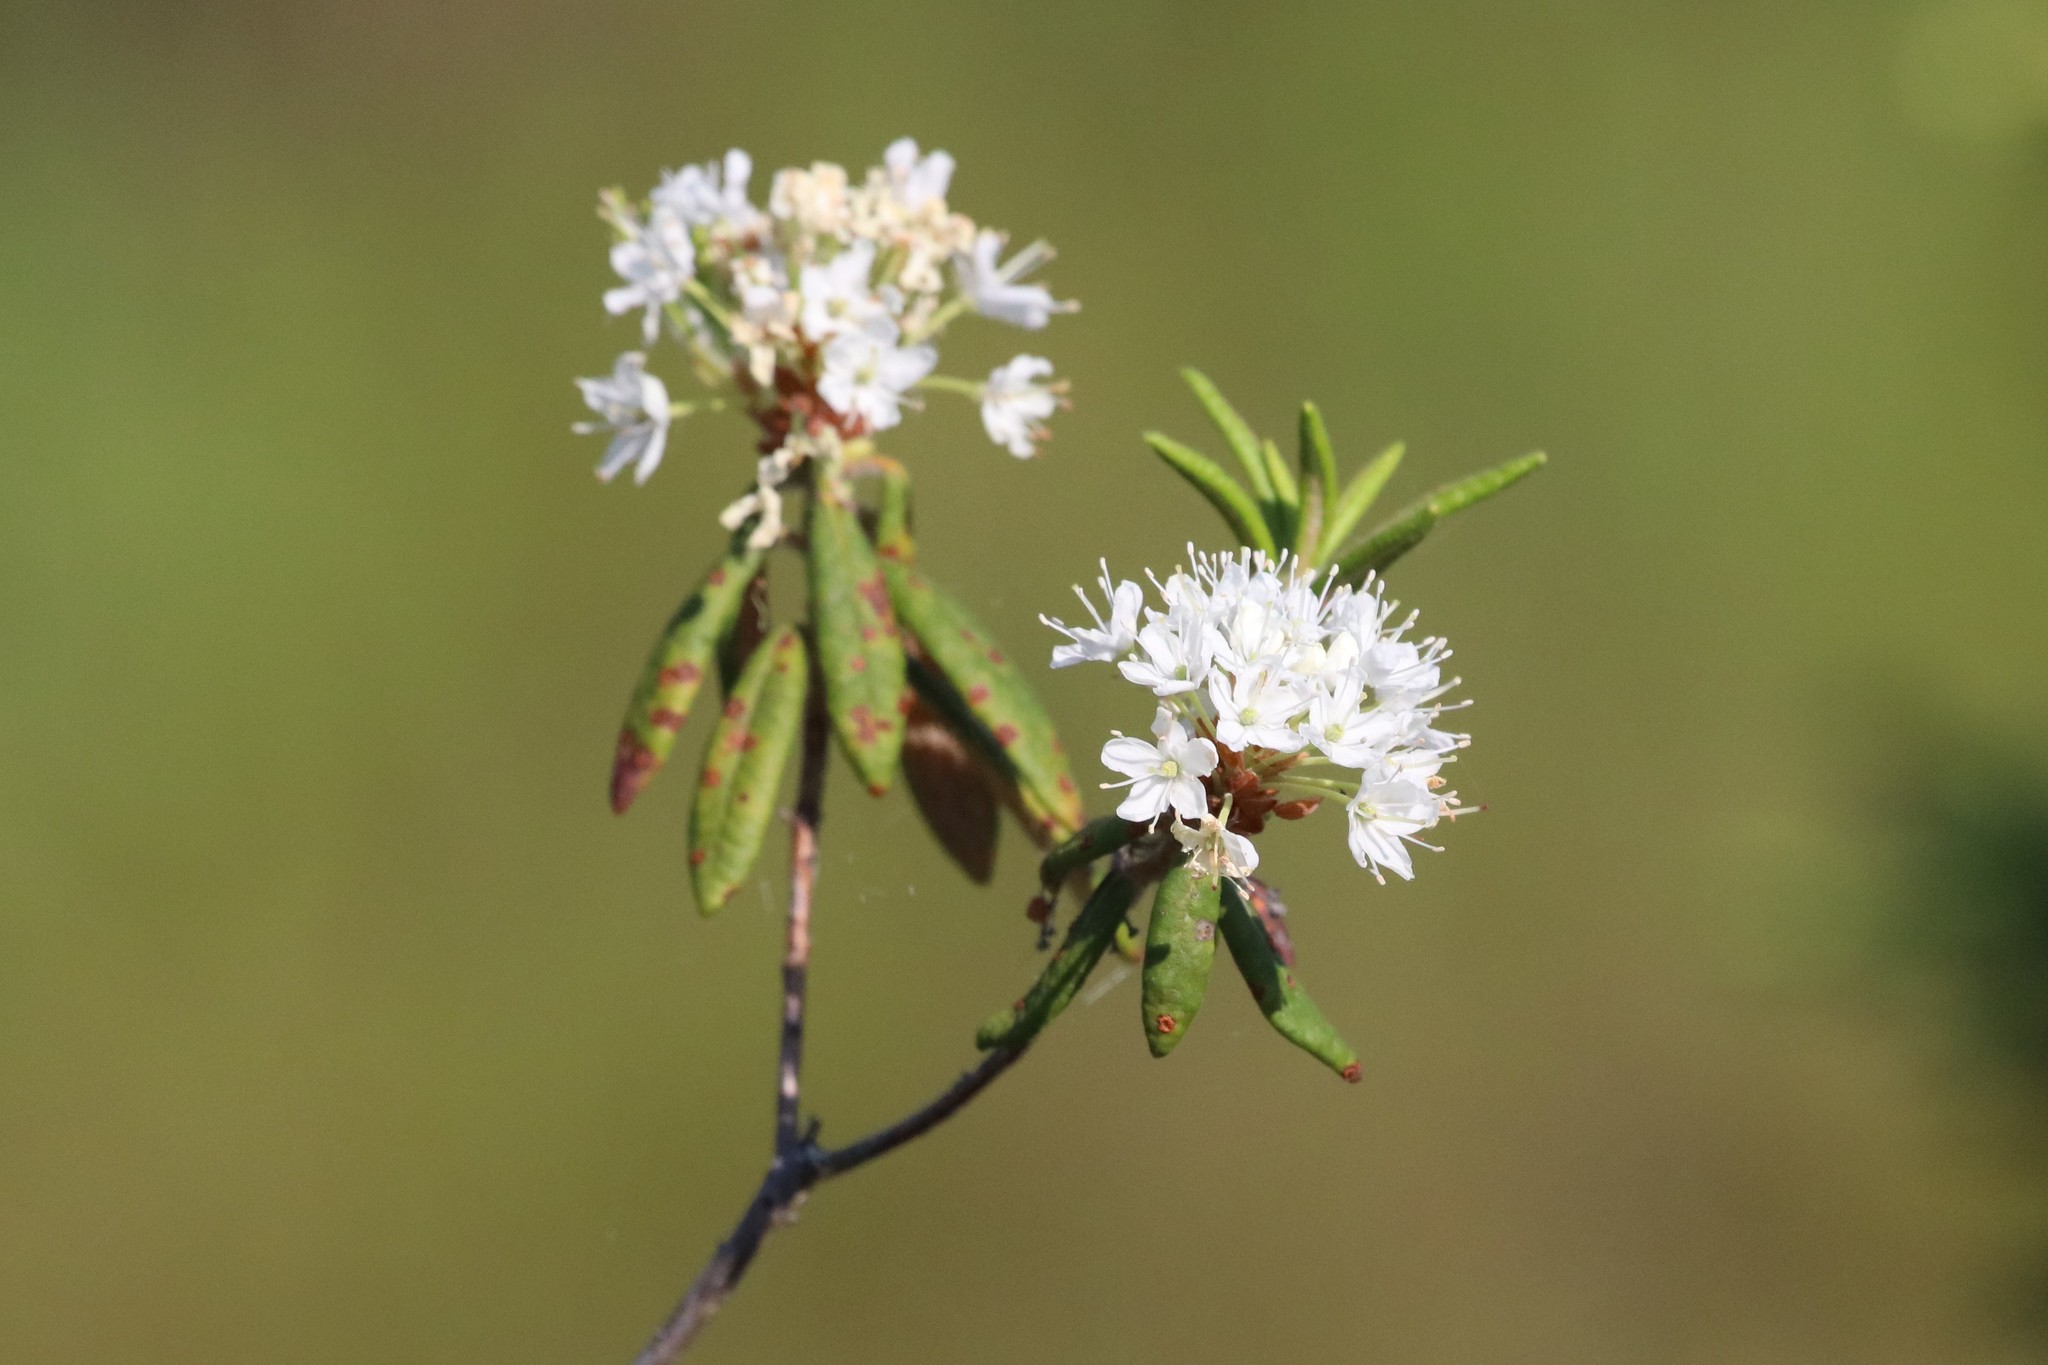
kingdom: Plantae
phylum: Tracheophyta
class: Magnoliopsida
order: Ericales
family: Ericaceae
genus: Rhododendron
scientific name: Rhododendron groenlandicum
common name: Bog labrador tea
